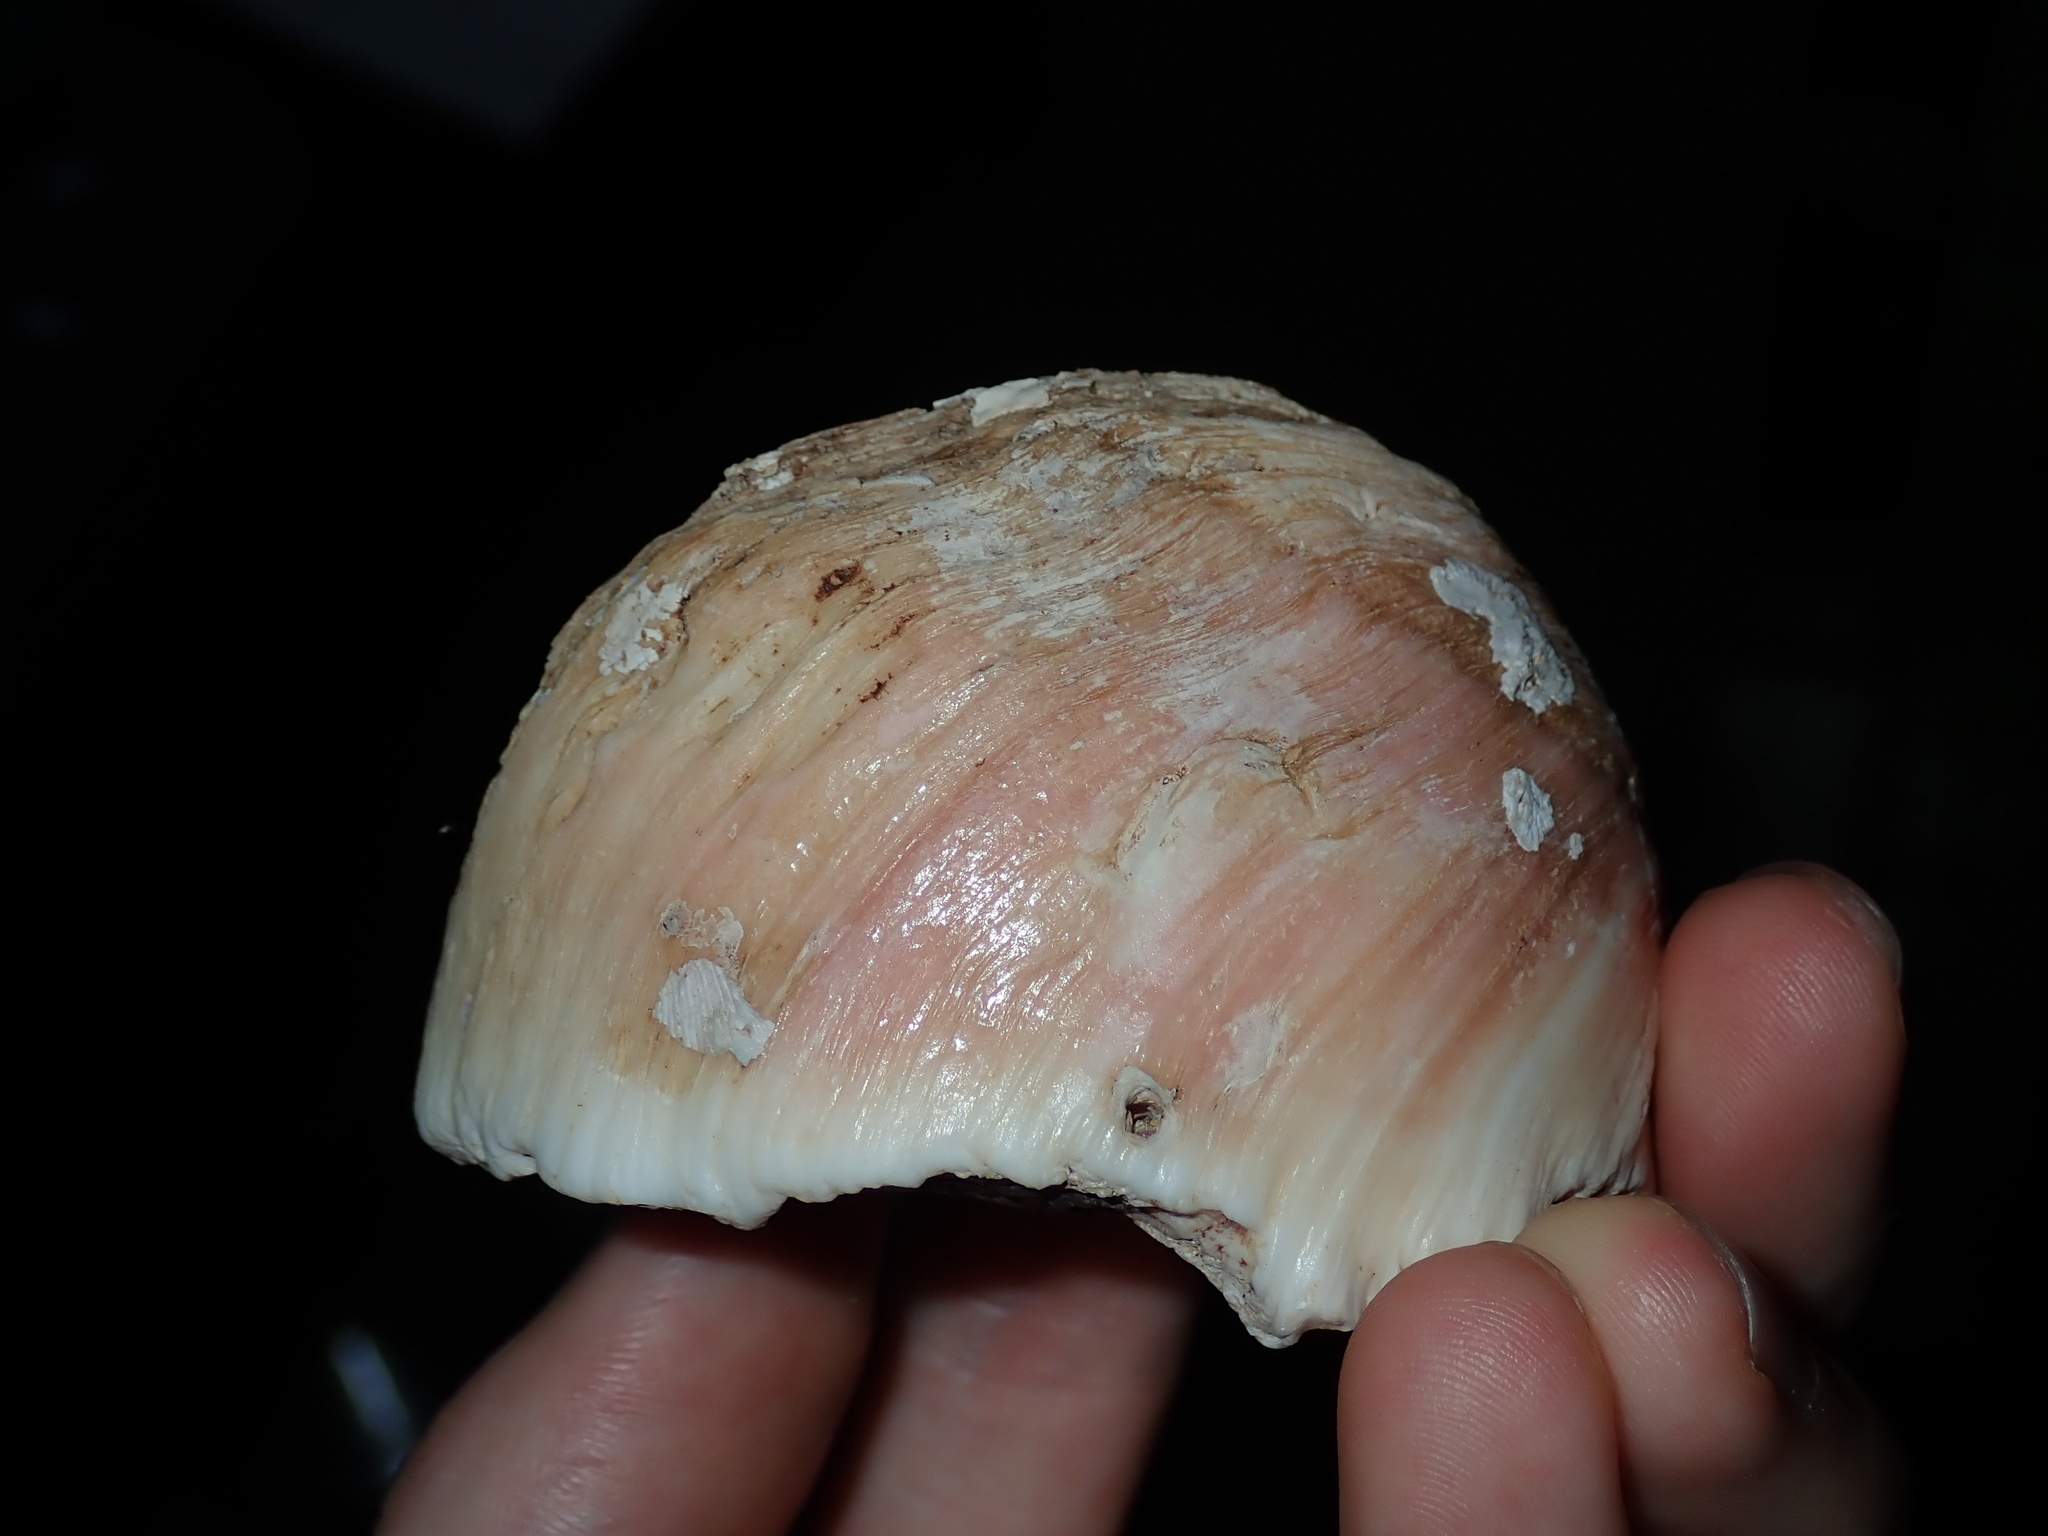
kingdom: Animalia
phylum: Mollusca
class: Bivalvia
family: Cleidothaeridae
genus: Cleidothaerus
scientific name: Cleidothaerus albidus
